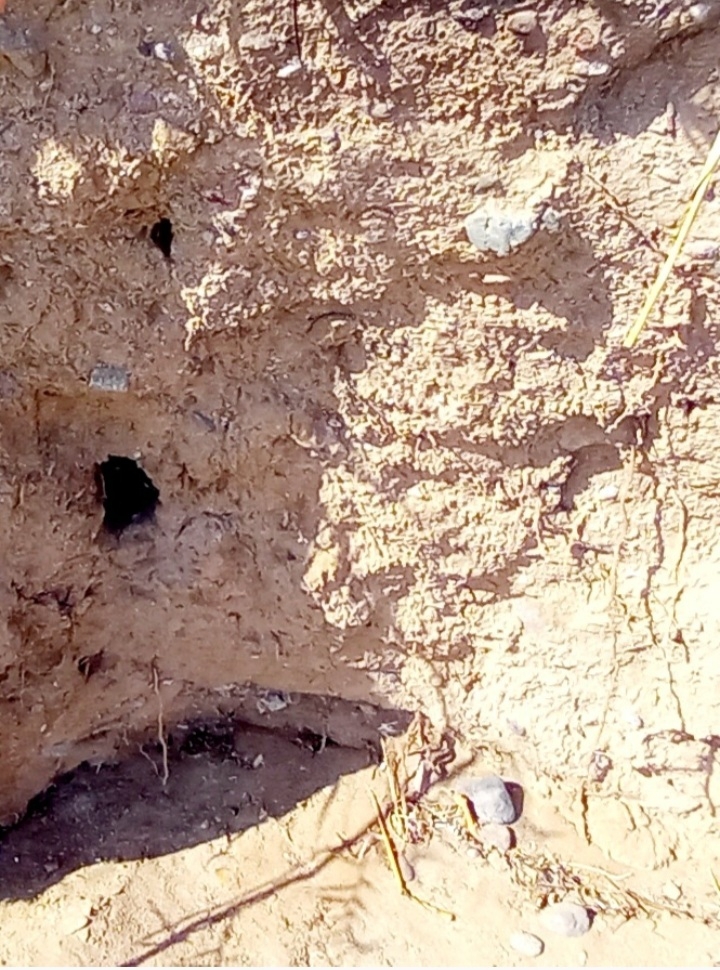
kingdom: Animalia
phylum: Chordata
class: Aves
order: Coraciiformes
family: Meropidae
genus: Merops
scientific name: Merops apiaster
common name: European bee-eater
